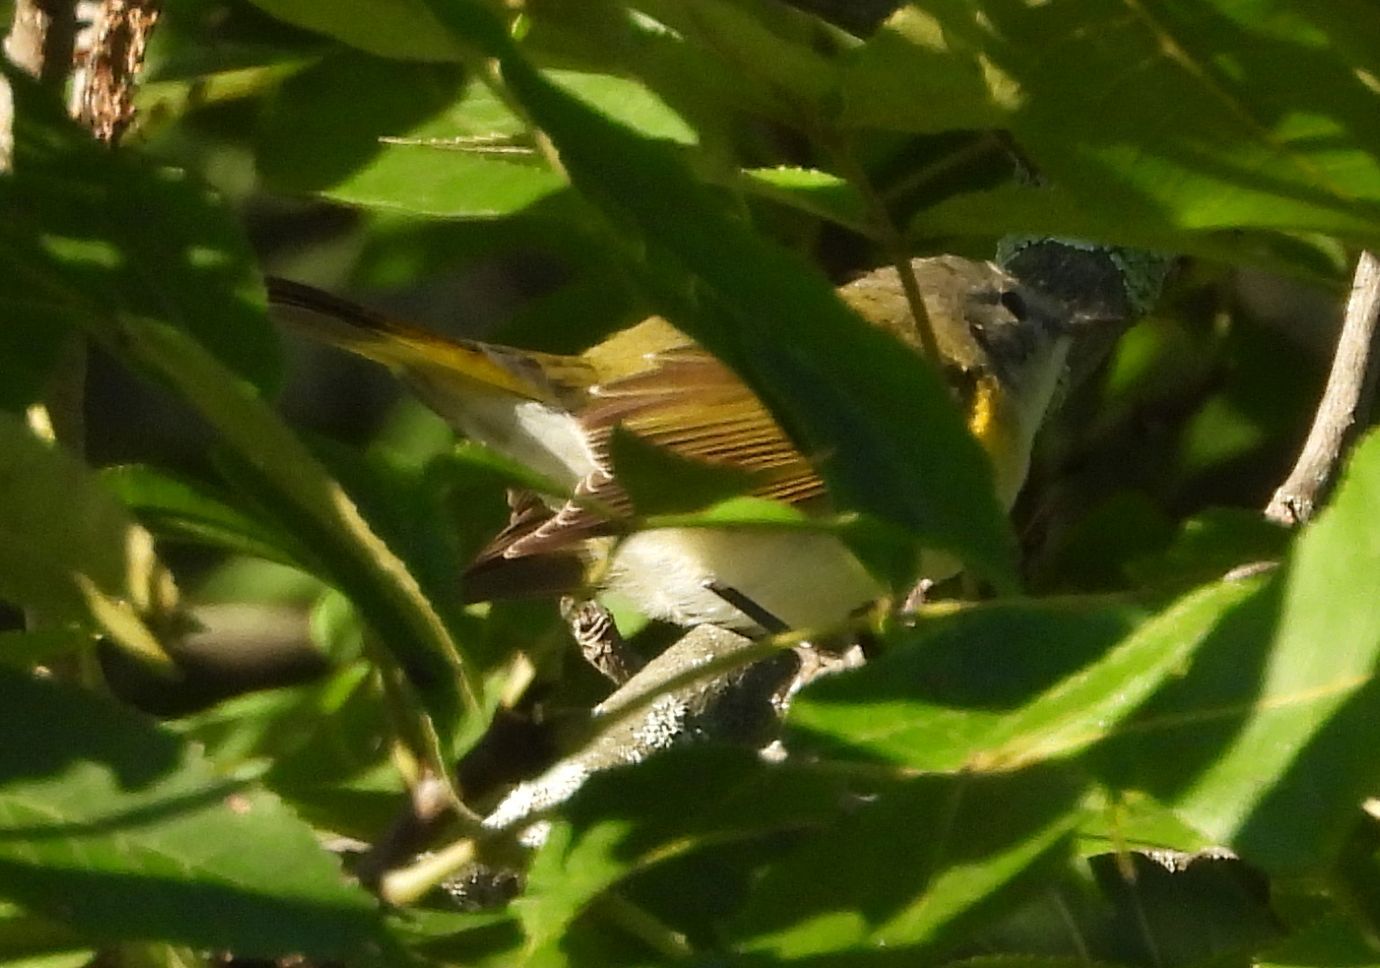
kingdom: Animalia
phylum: Chordata
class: Aves
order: Passeriformes
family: Parulidae
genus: Setophaga
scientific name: Setophaga ruticilla
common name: American redstart
